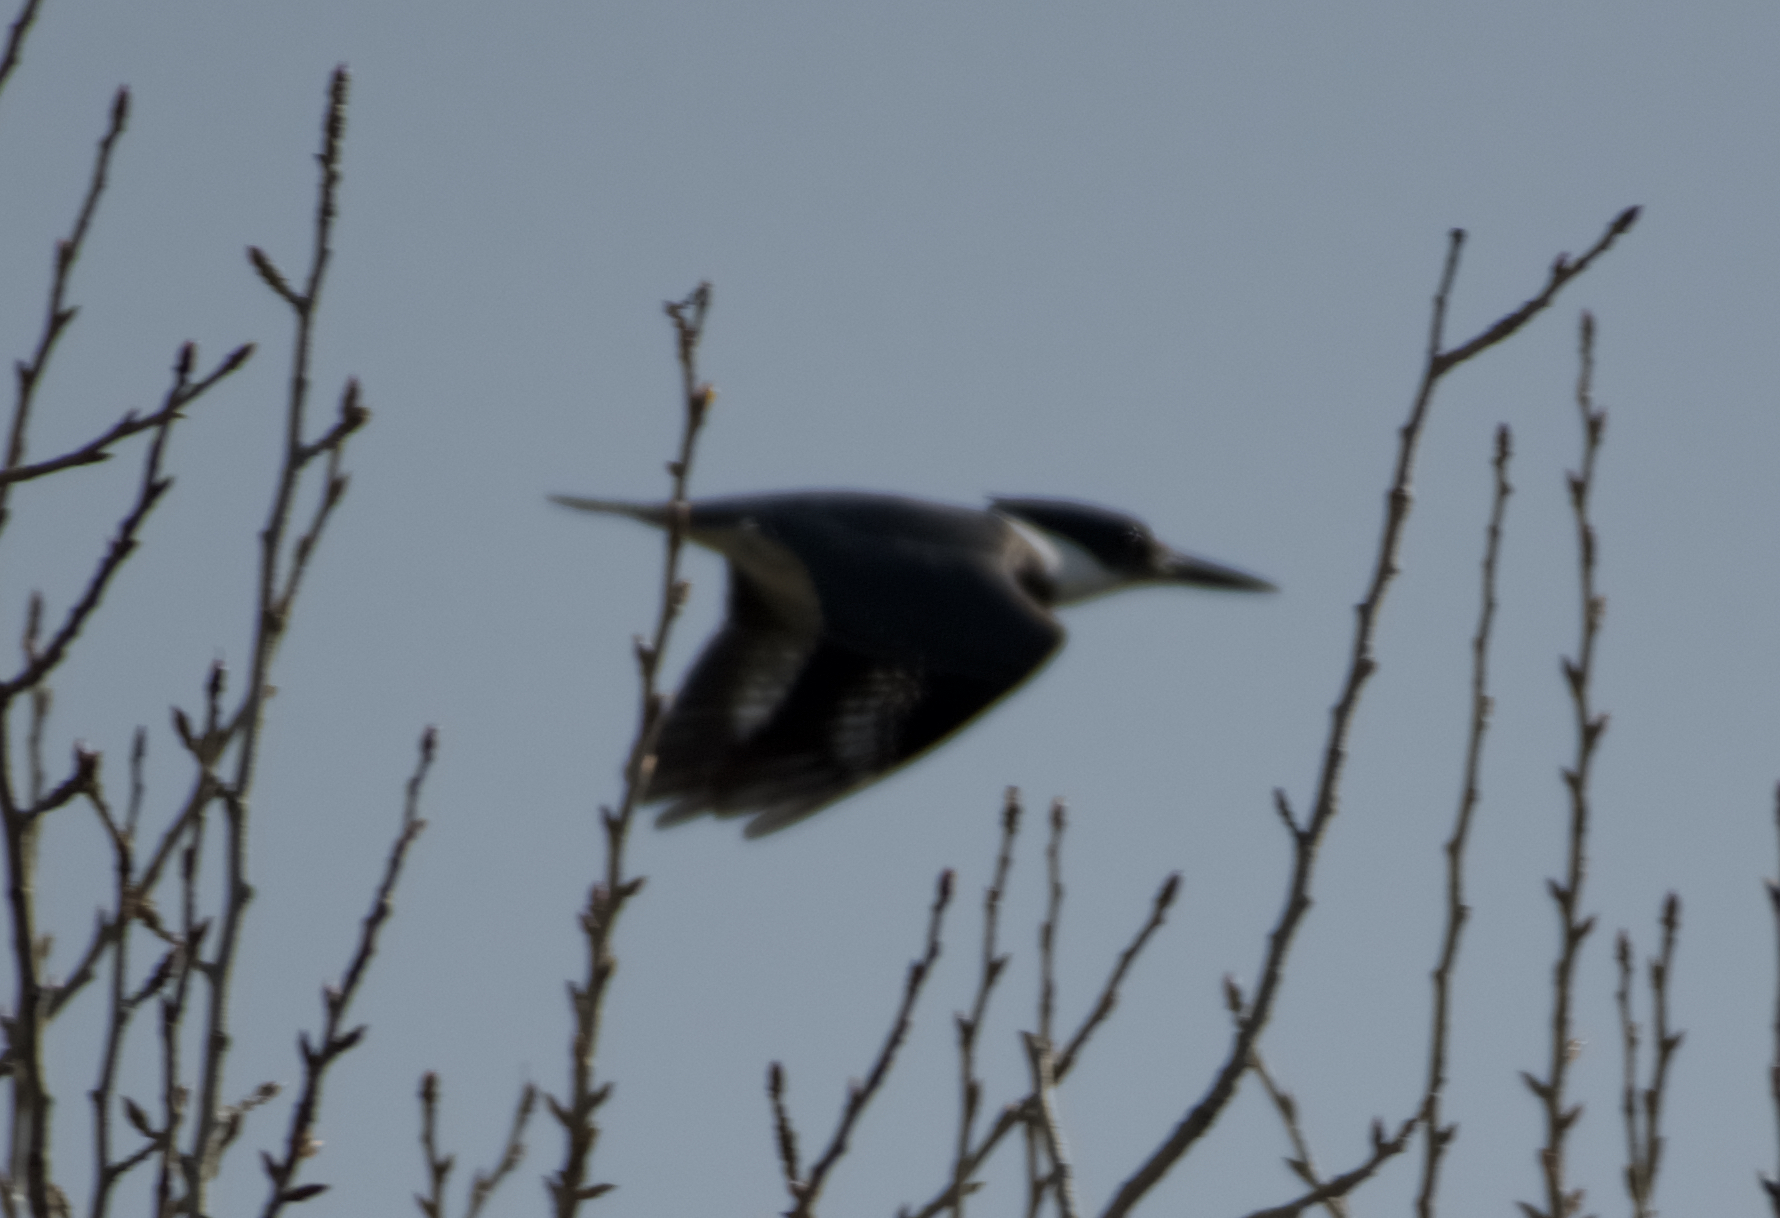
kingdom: Animalia
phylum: Chordata
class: Aves
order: Coraciiformes
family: Alcedinidae
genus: Megaceryle
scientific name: Megaceryle alcyon
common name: Belted kingfisher
